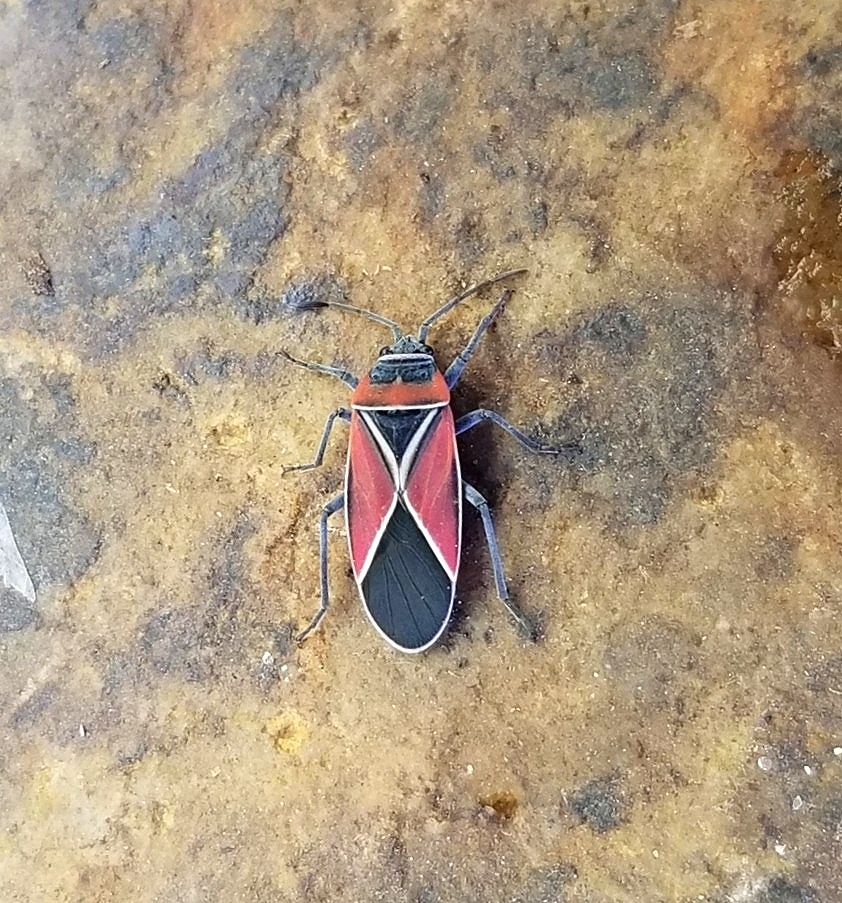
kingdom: Animalia
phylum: Arthropoda
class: Insecta
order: Hemiptera
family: Lygaeidae
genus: Neacoryphus
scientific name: Neacoryphus bicrucis
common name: Lygaeid bug
